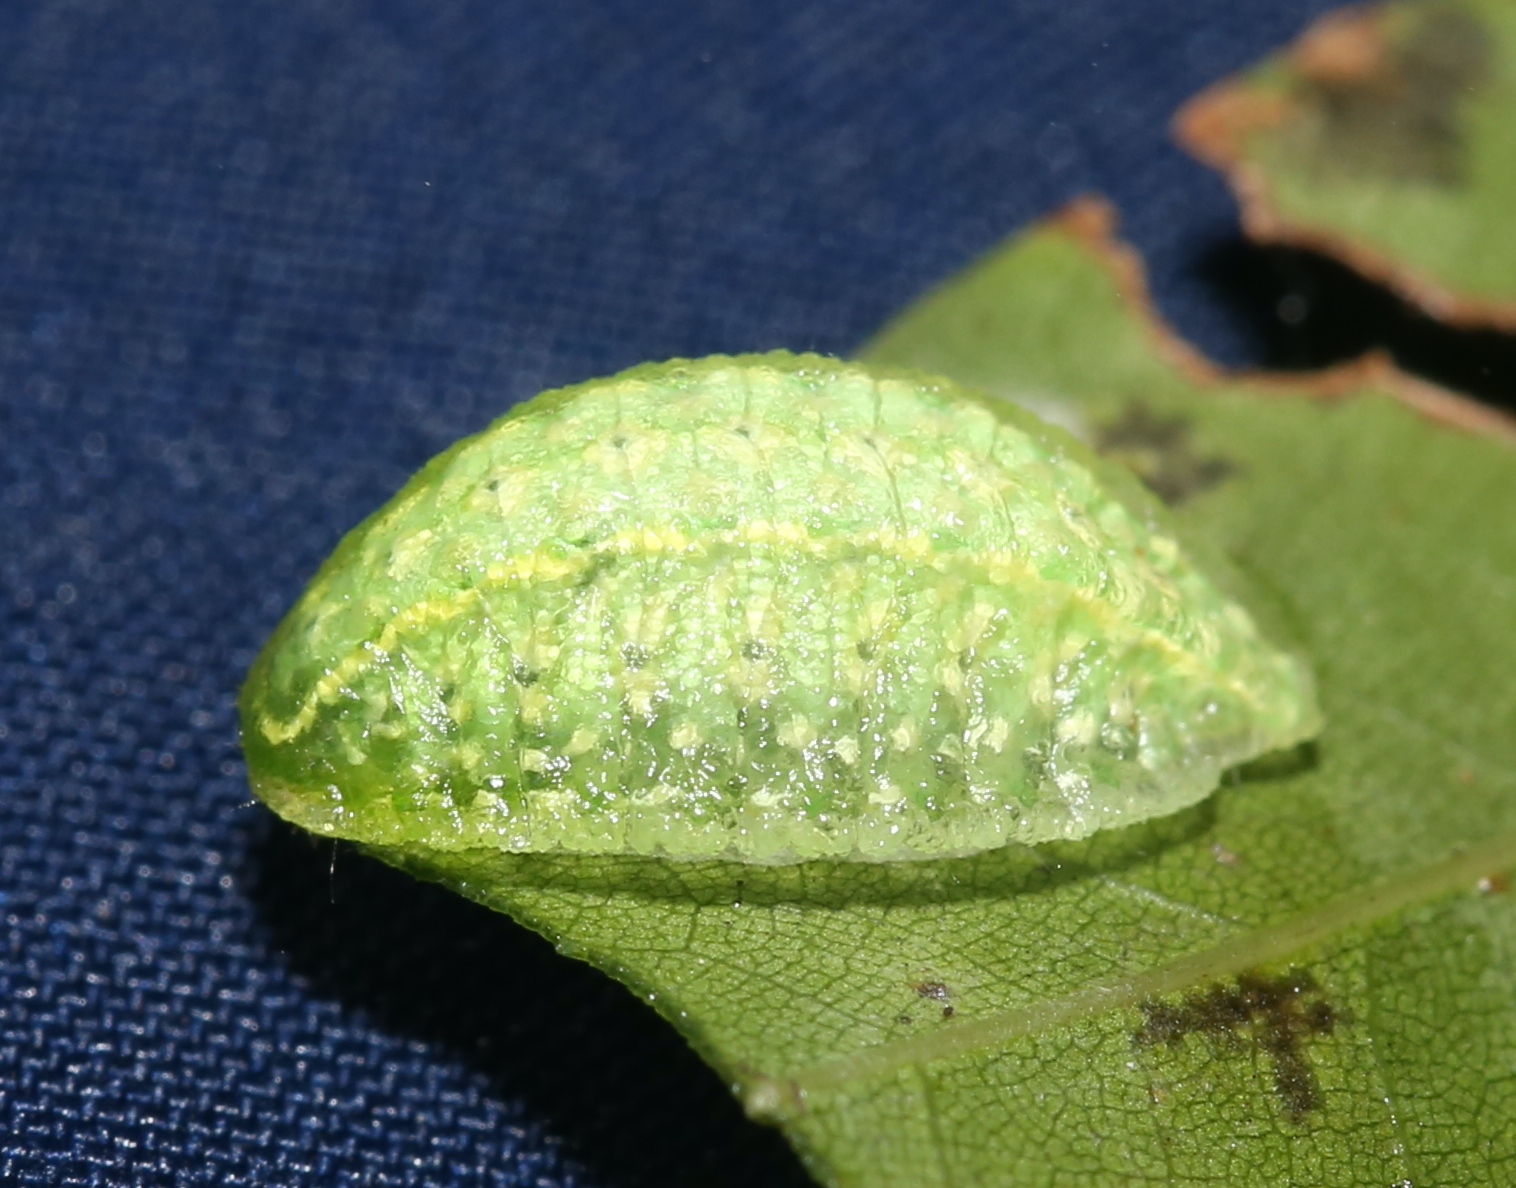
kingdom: Animalia
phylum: Arthropoda
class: Insecta
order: Lepidoptera
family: Limacodidae
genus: Lithacodes
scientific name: Lithacodes fasciola
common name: Yellow-shouldered slug moth
